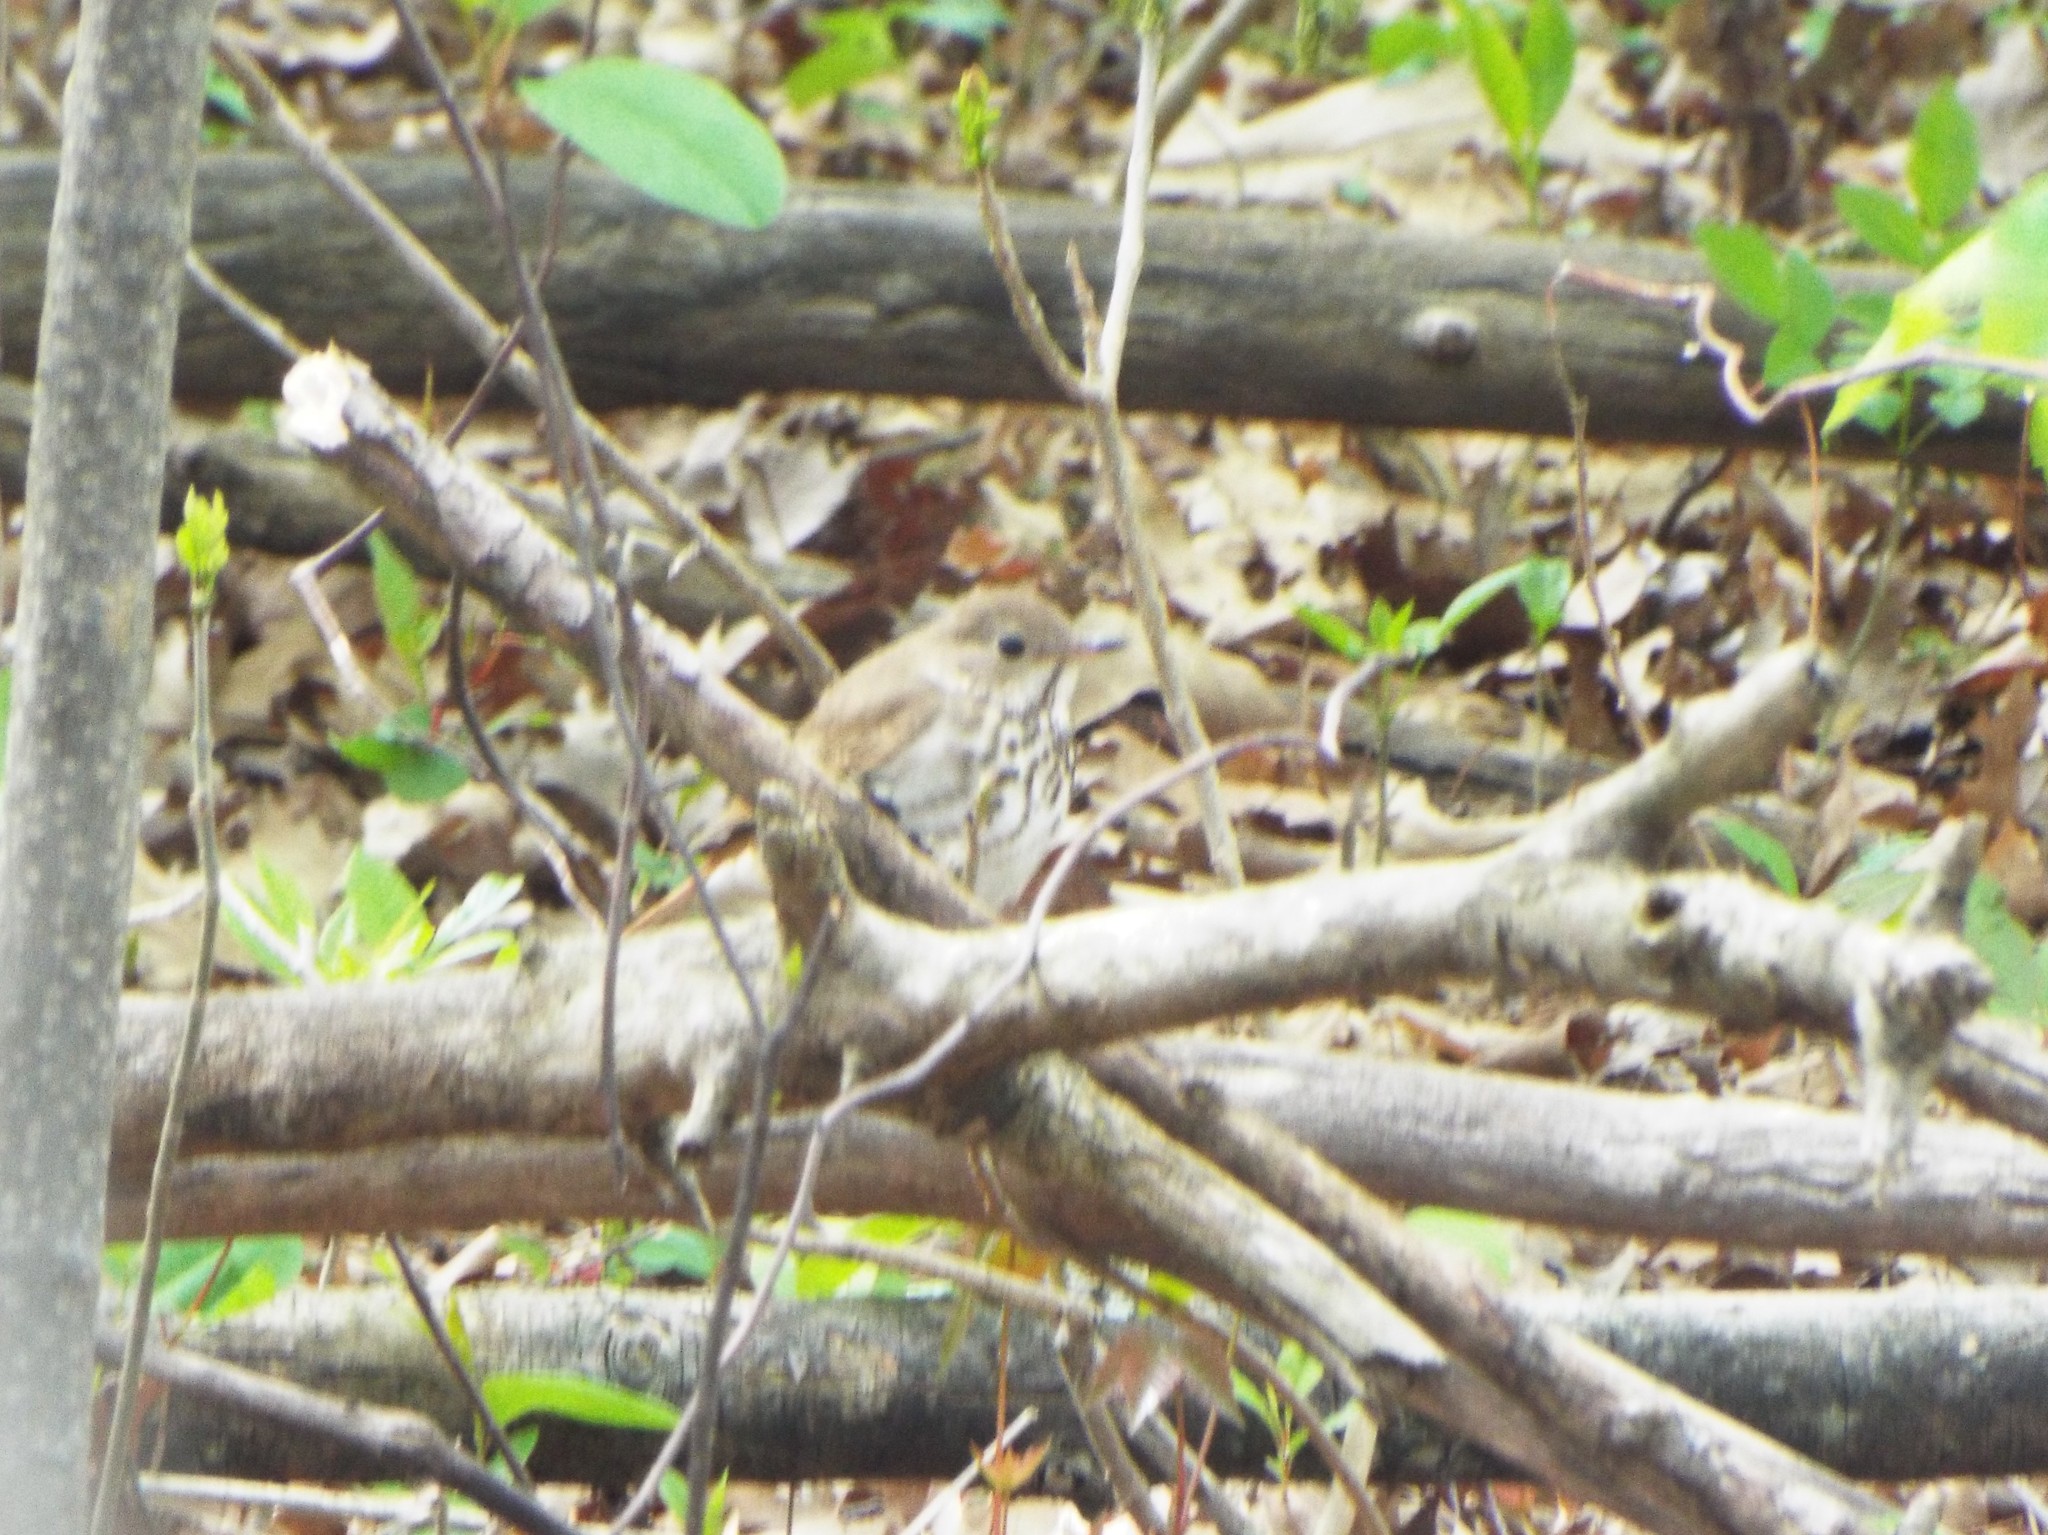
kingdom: Animalia
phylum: Chordata
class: Aves
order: Passeriformes
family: Turdidae
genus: Catharus
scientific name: Catharus guttatus
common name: Hermit thrush
